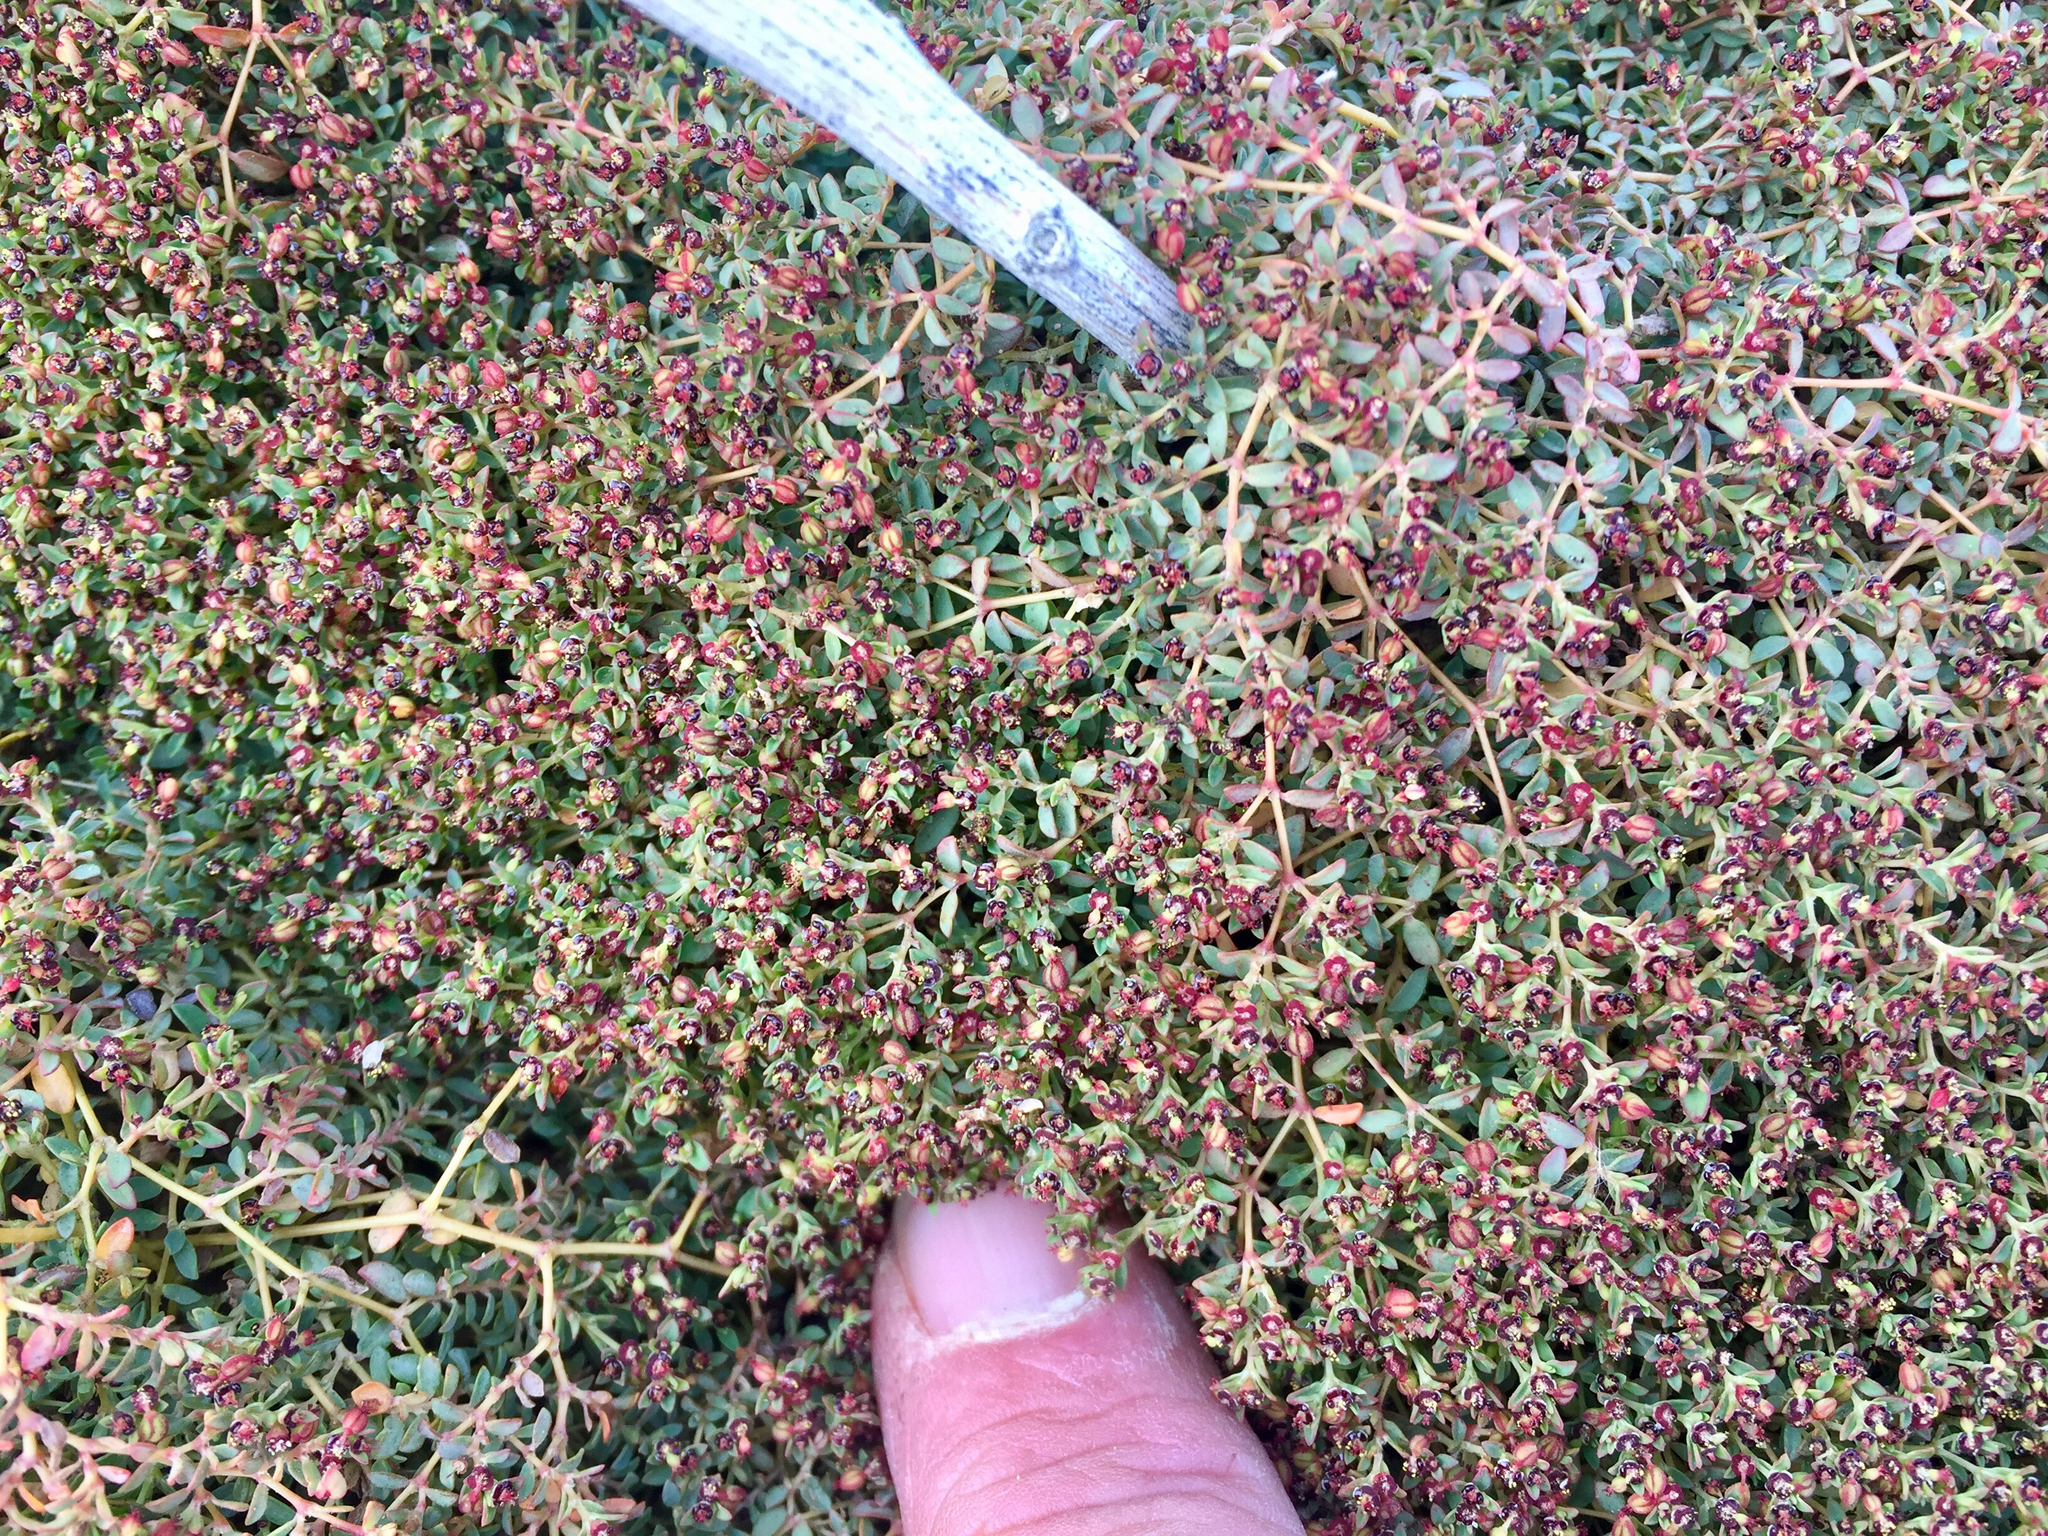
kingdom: Plantae
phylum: Tracheophyta
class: Magnoliopsida
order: Malpighiales
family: Euphorbiaceae
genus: Euphorbia
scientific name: Euphorbia polycarpa
